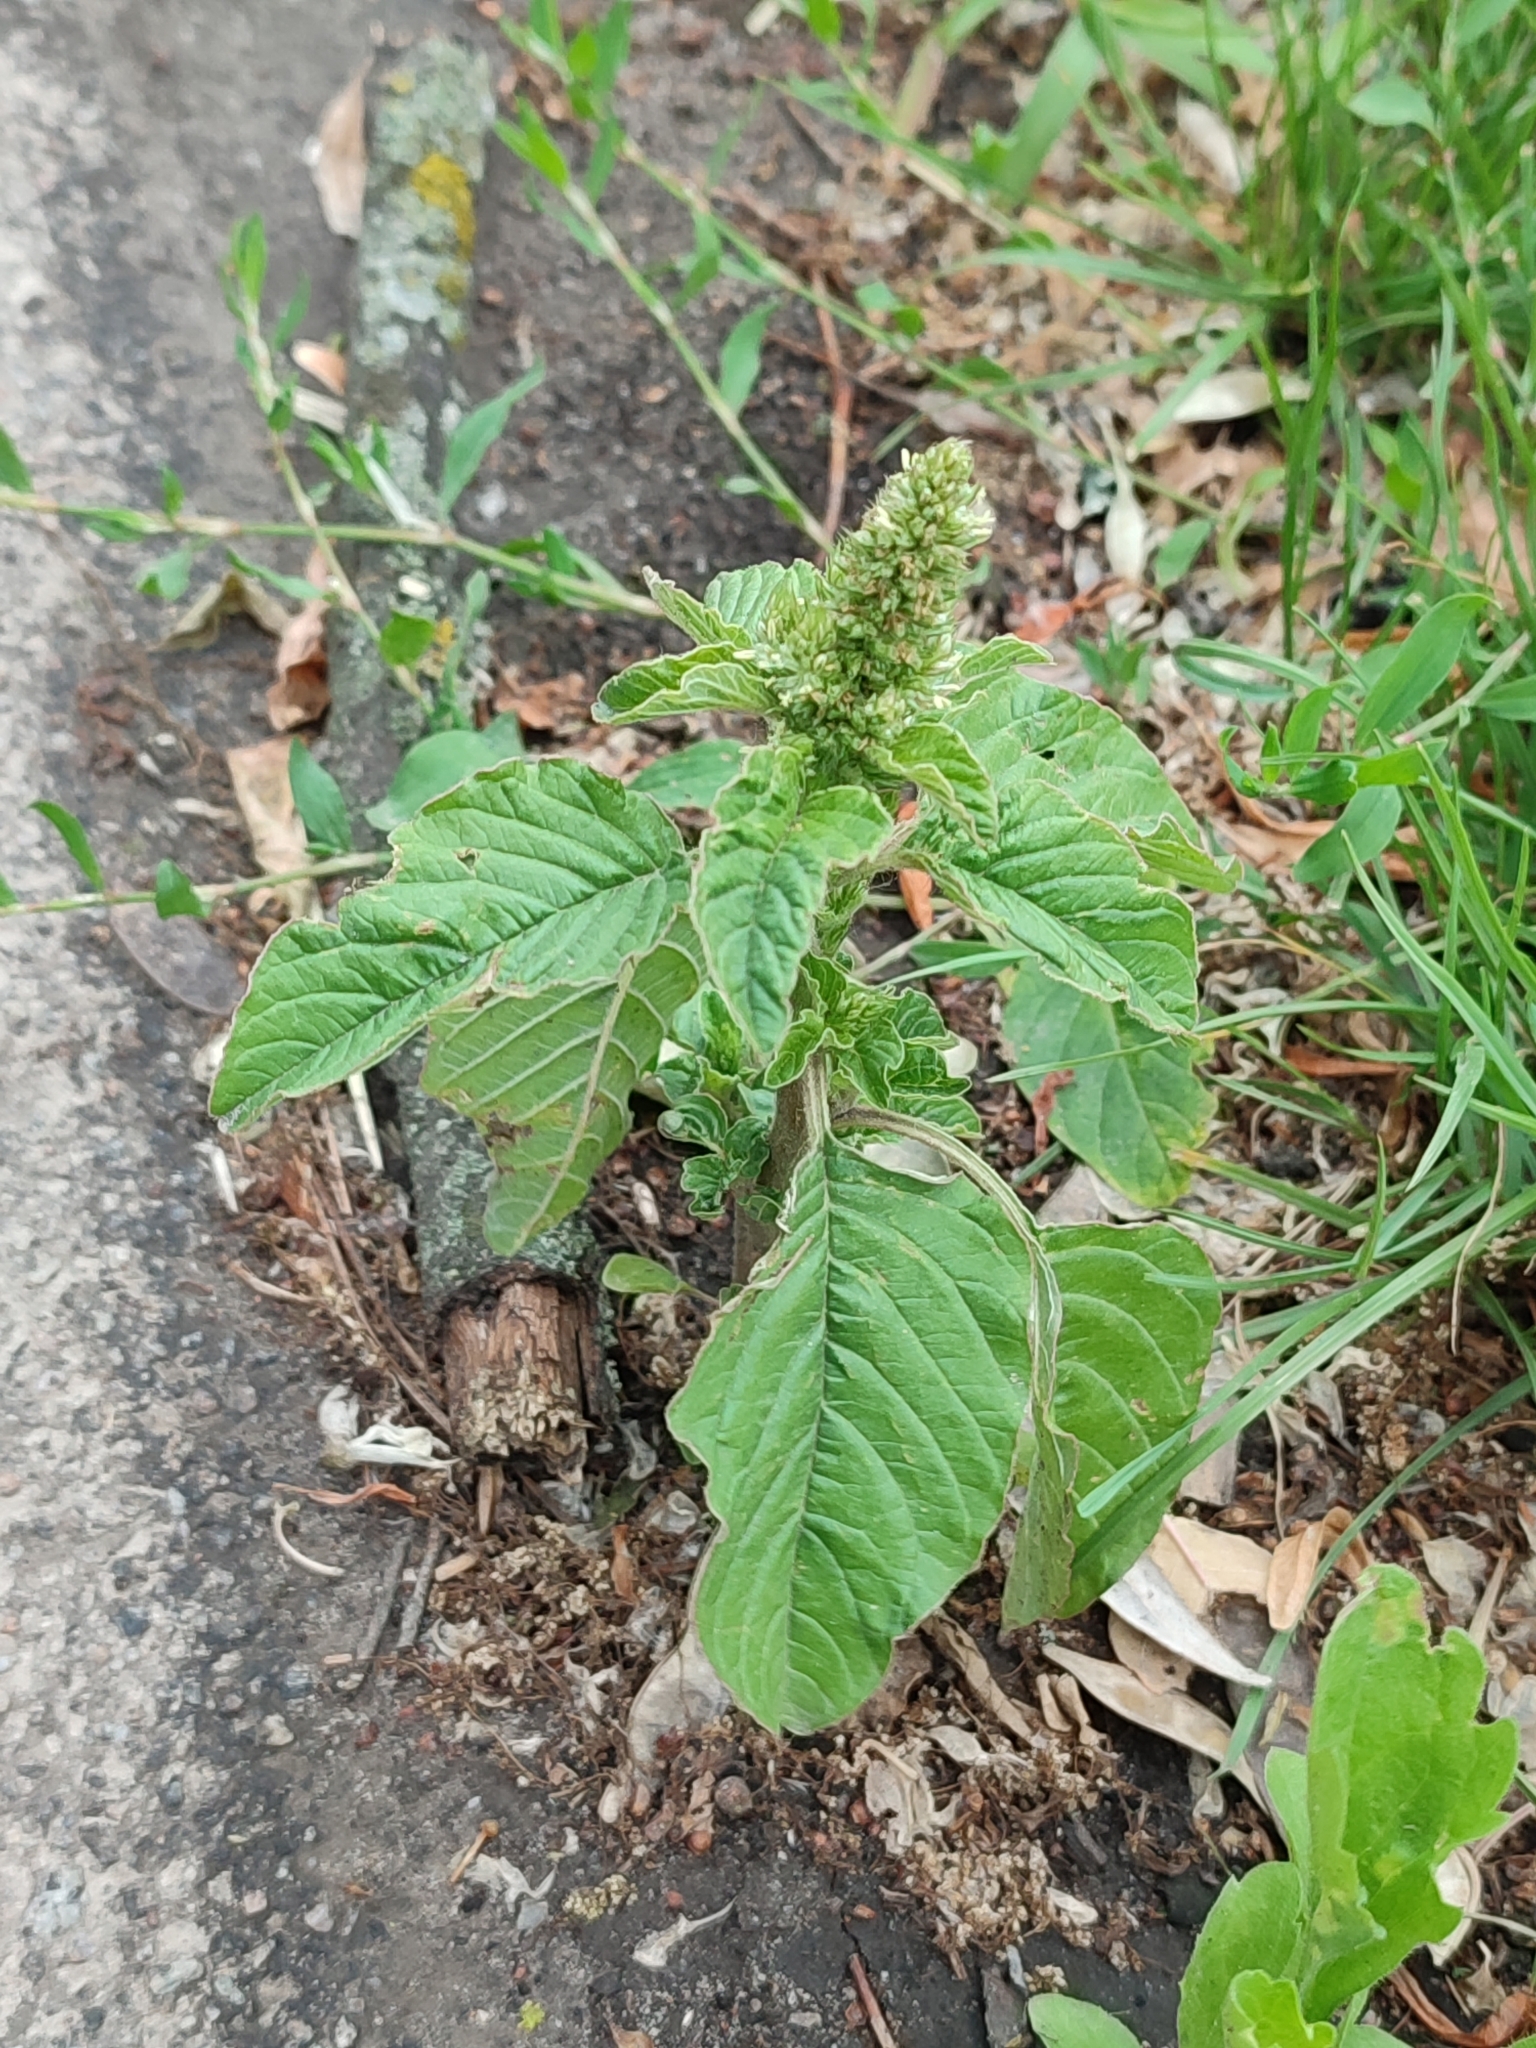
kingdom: Plantae
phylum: Tracheophyta
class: Magnoliopsida
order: Caryophyllales
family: Amaranthaceae
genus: Amaranthus
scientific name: Amaranthus retroflexus
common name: Redroot amaranth
